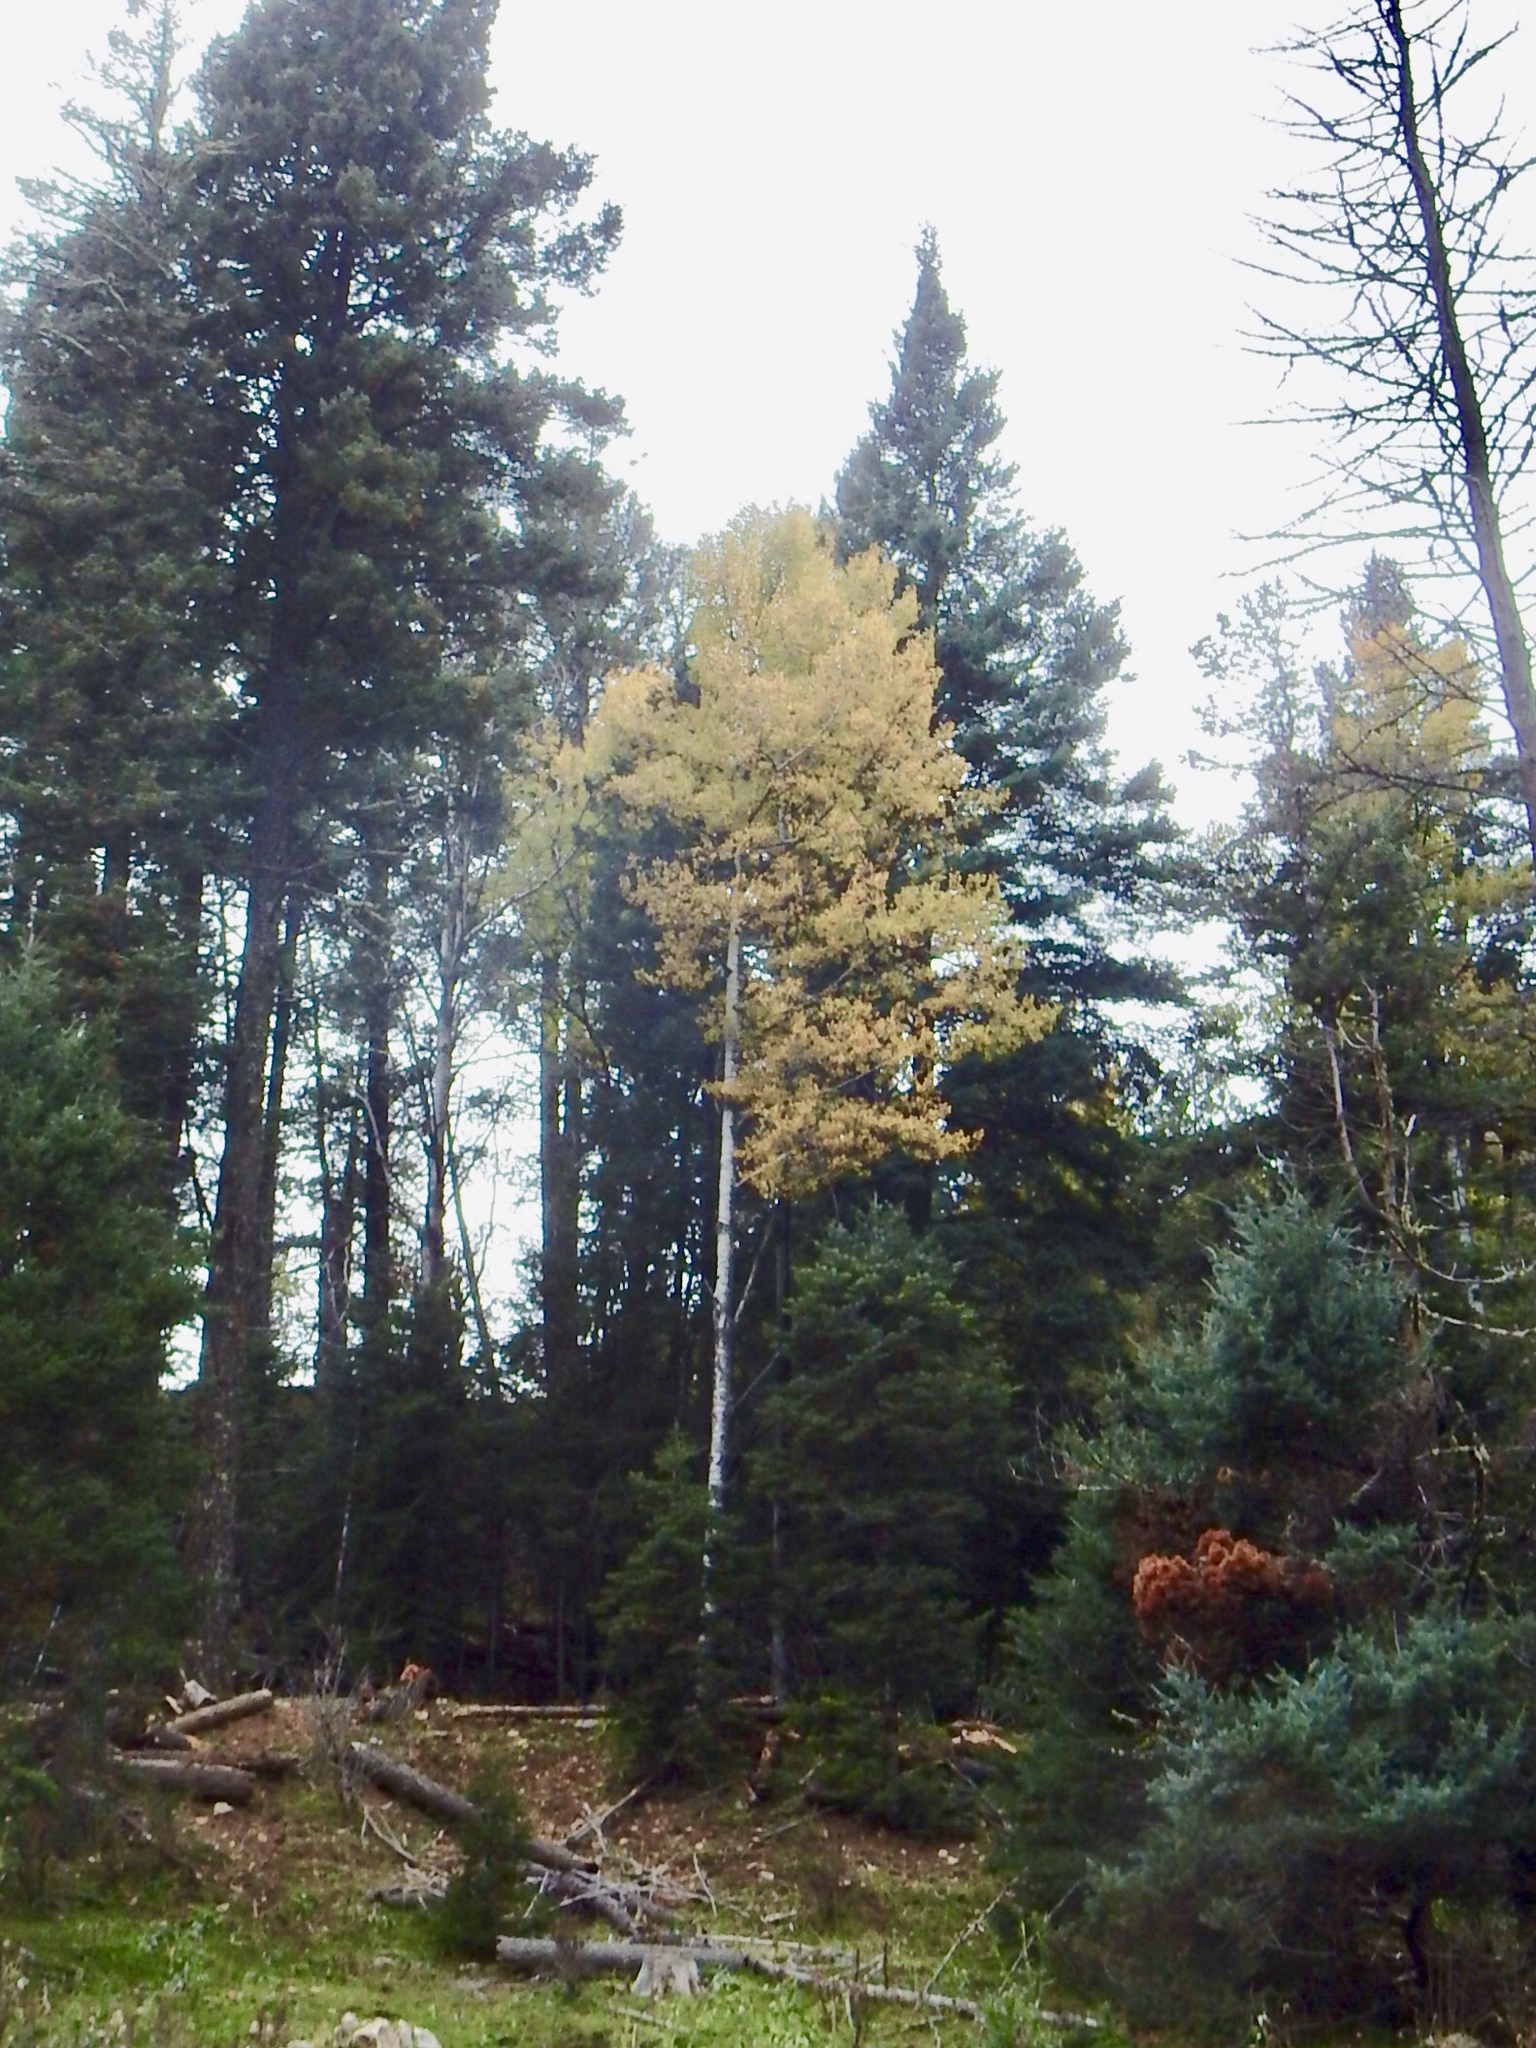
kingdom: Plantae
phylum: Tracheophyta
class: Magnoliopsida
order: Malpighiales
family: Salicaceae
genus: Populus
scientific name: Populus tremuloides
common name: Quaking aspen
